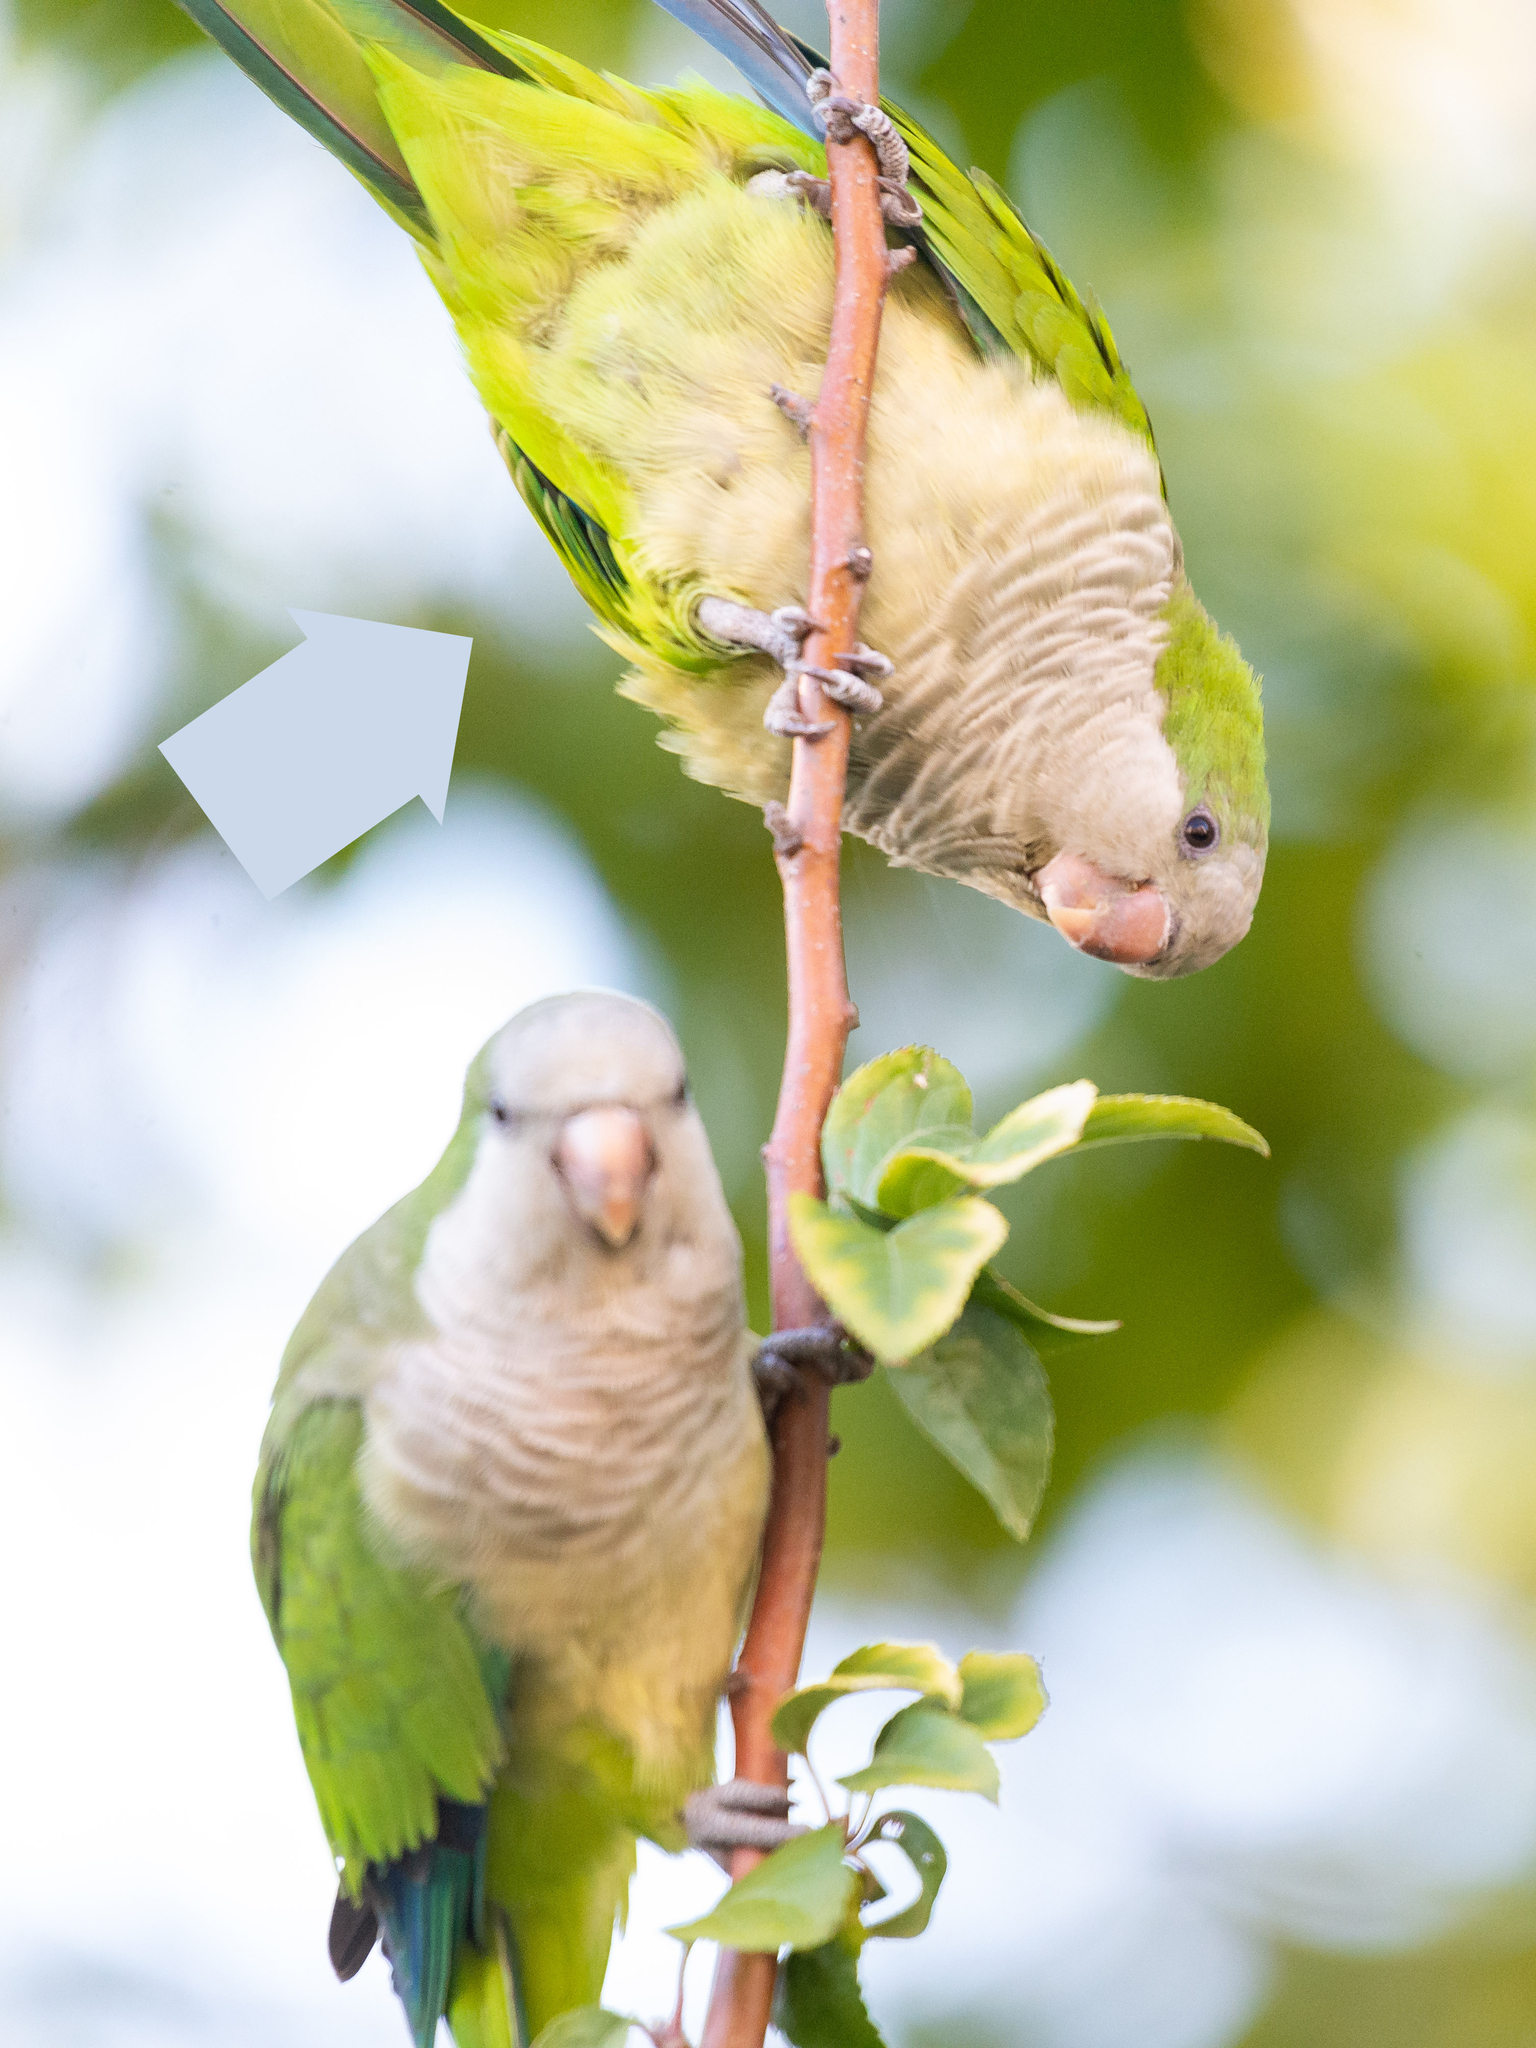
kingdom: Animalia
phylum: Chordata
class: Aves
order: Psittaciformes
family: Psittacidae
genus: Myiopsitta
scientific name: Myiopsitta monachus
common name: Monk parakeet
